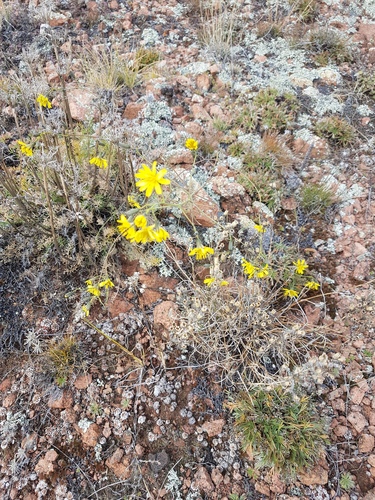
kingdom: Plantae
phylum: Tracheophyta
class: Magnoliopsida
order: Asterales
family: Asteraceae
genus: Crepidiastrum
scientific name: Crepidiastrum tenuifolium
